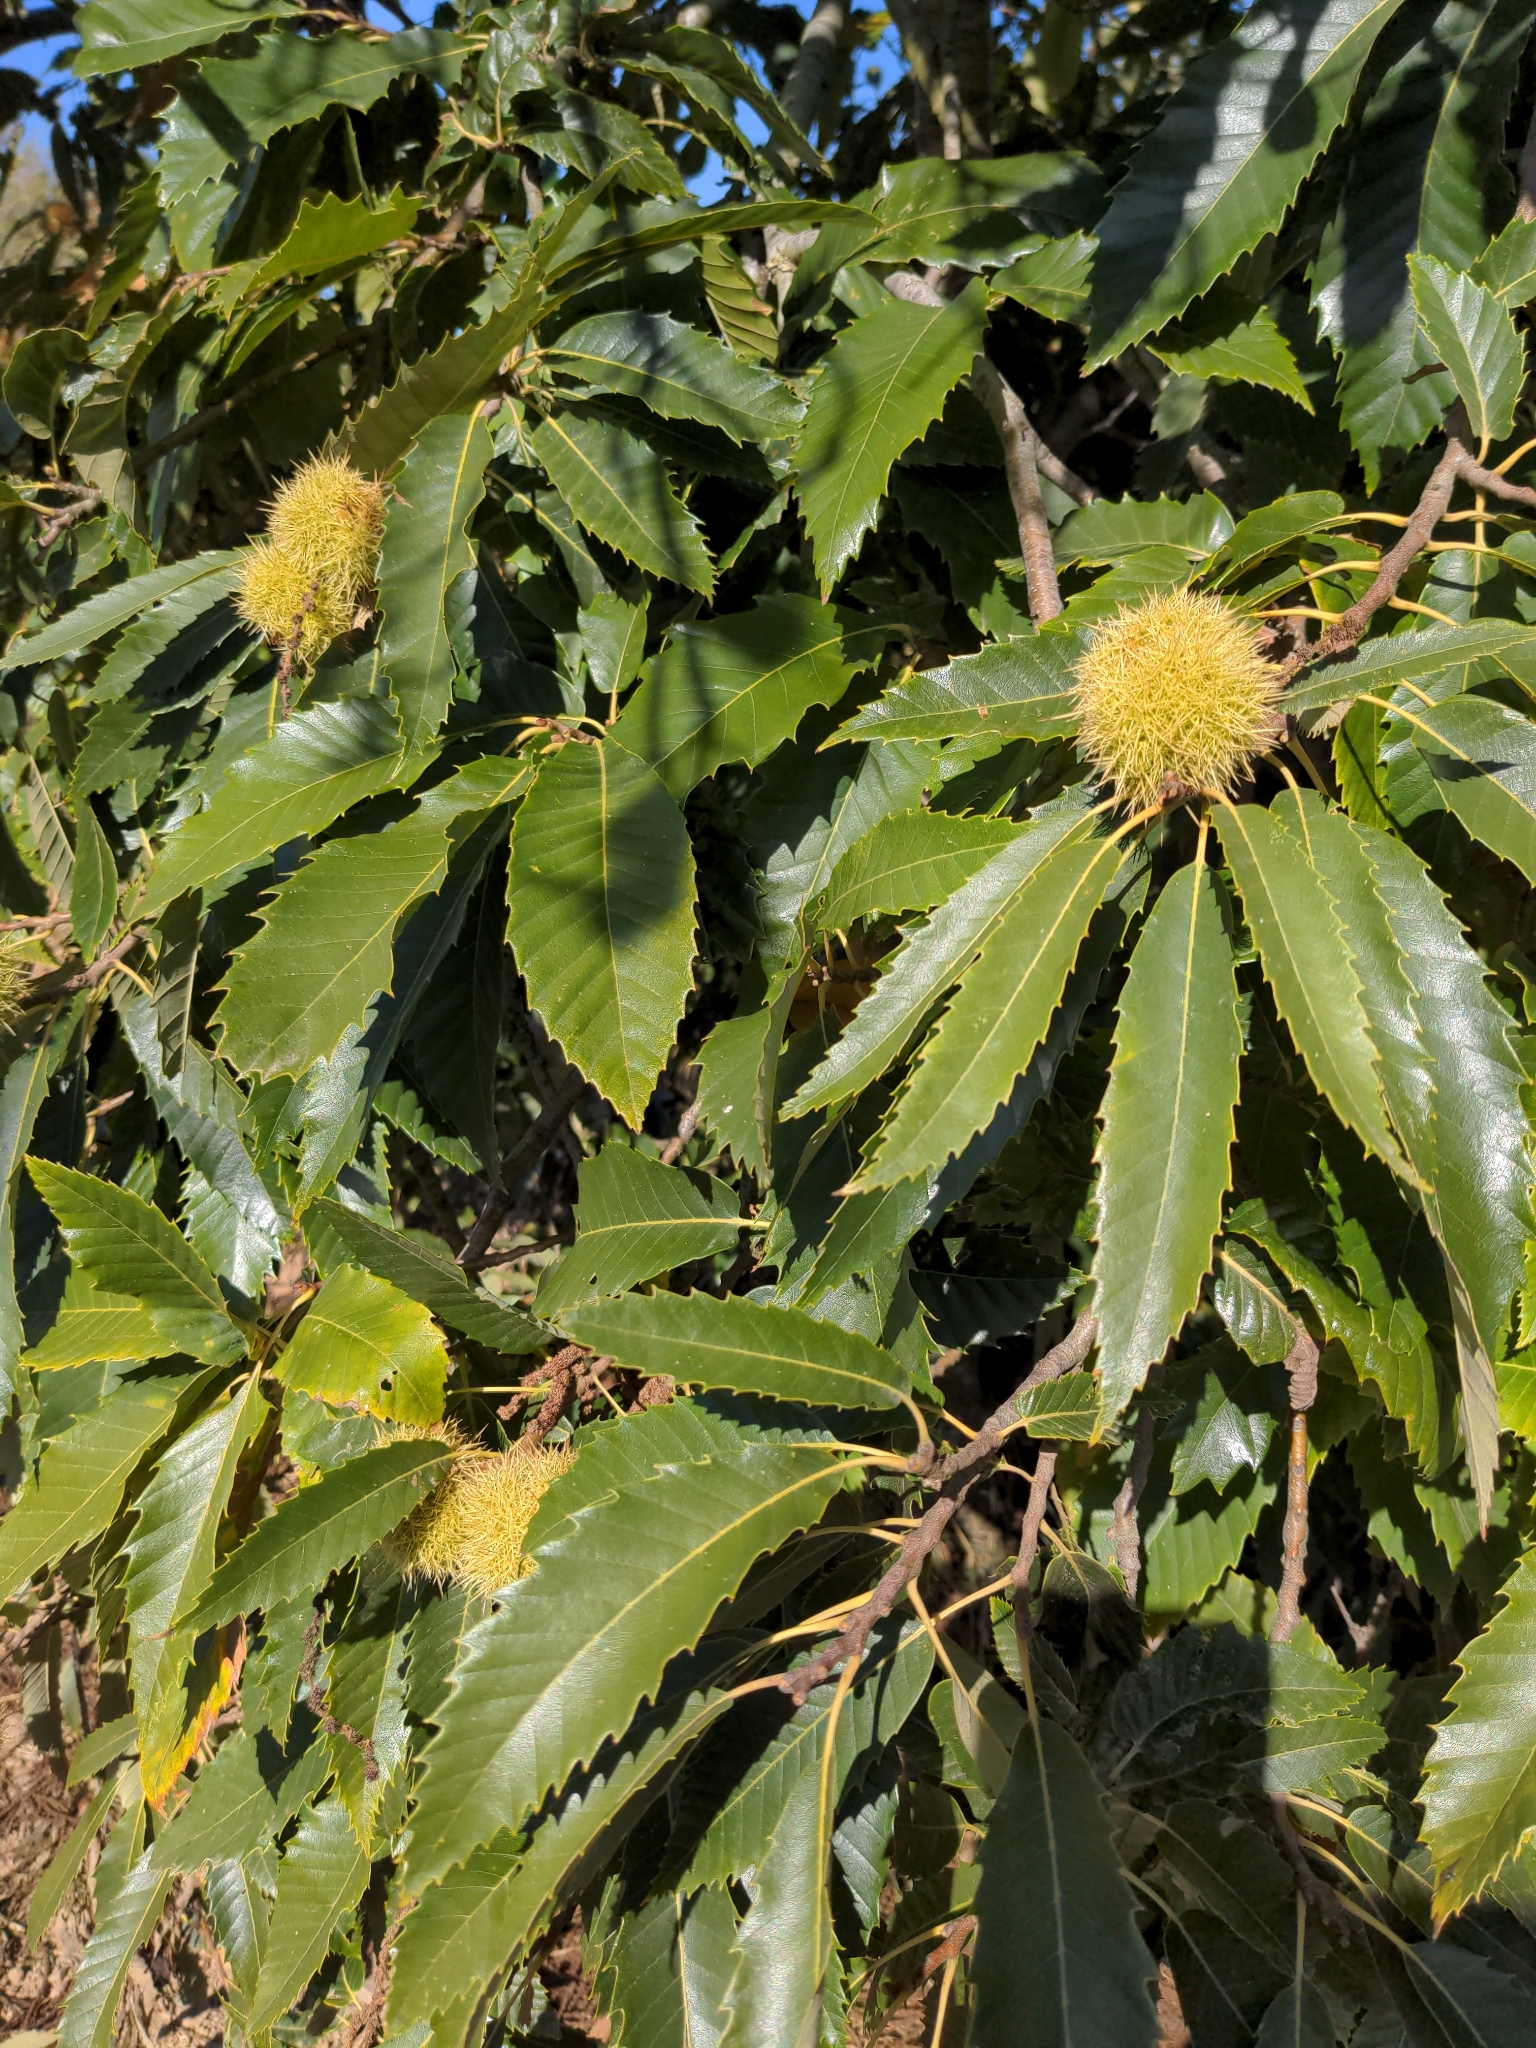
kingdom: Plantae
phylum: Tracheophyta
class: Magnoliopsida
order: Fagales
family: Fagaceae
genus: Castanea
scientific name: Castanea sativa
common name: Sweet chestnut
